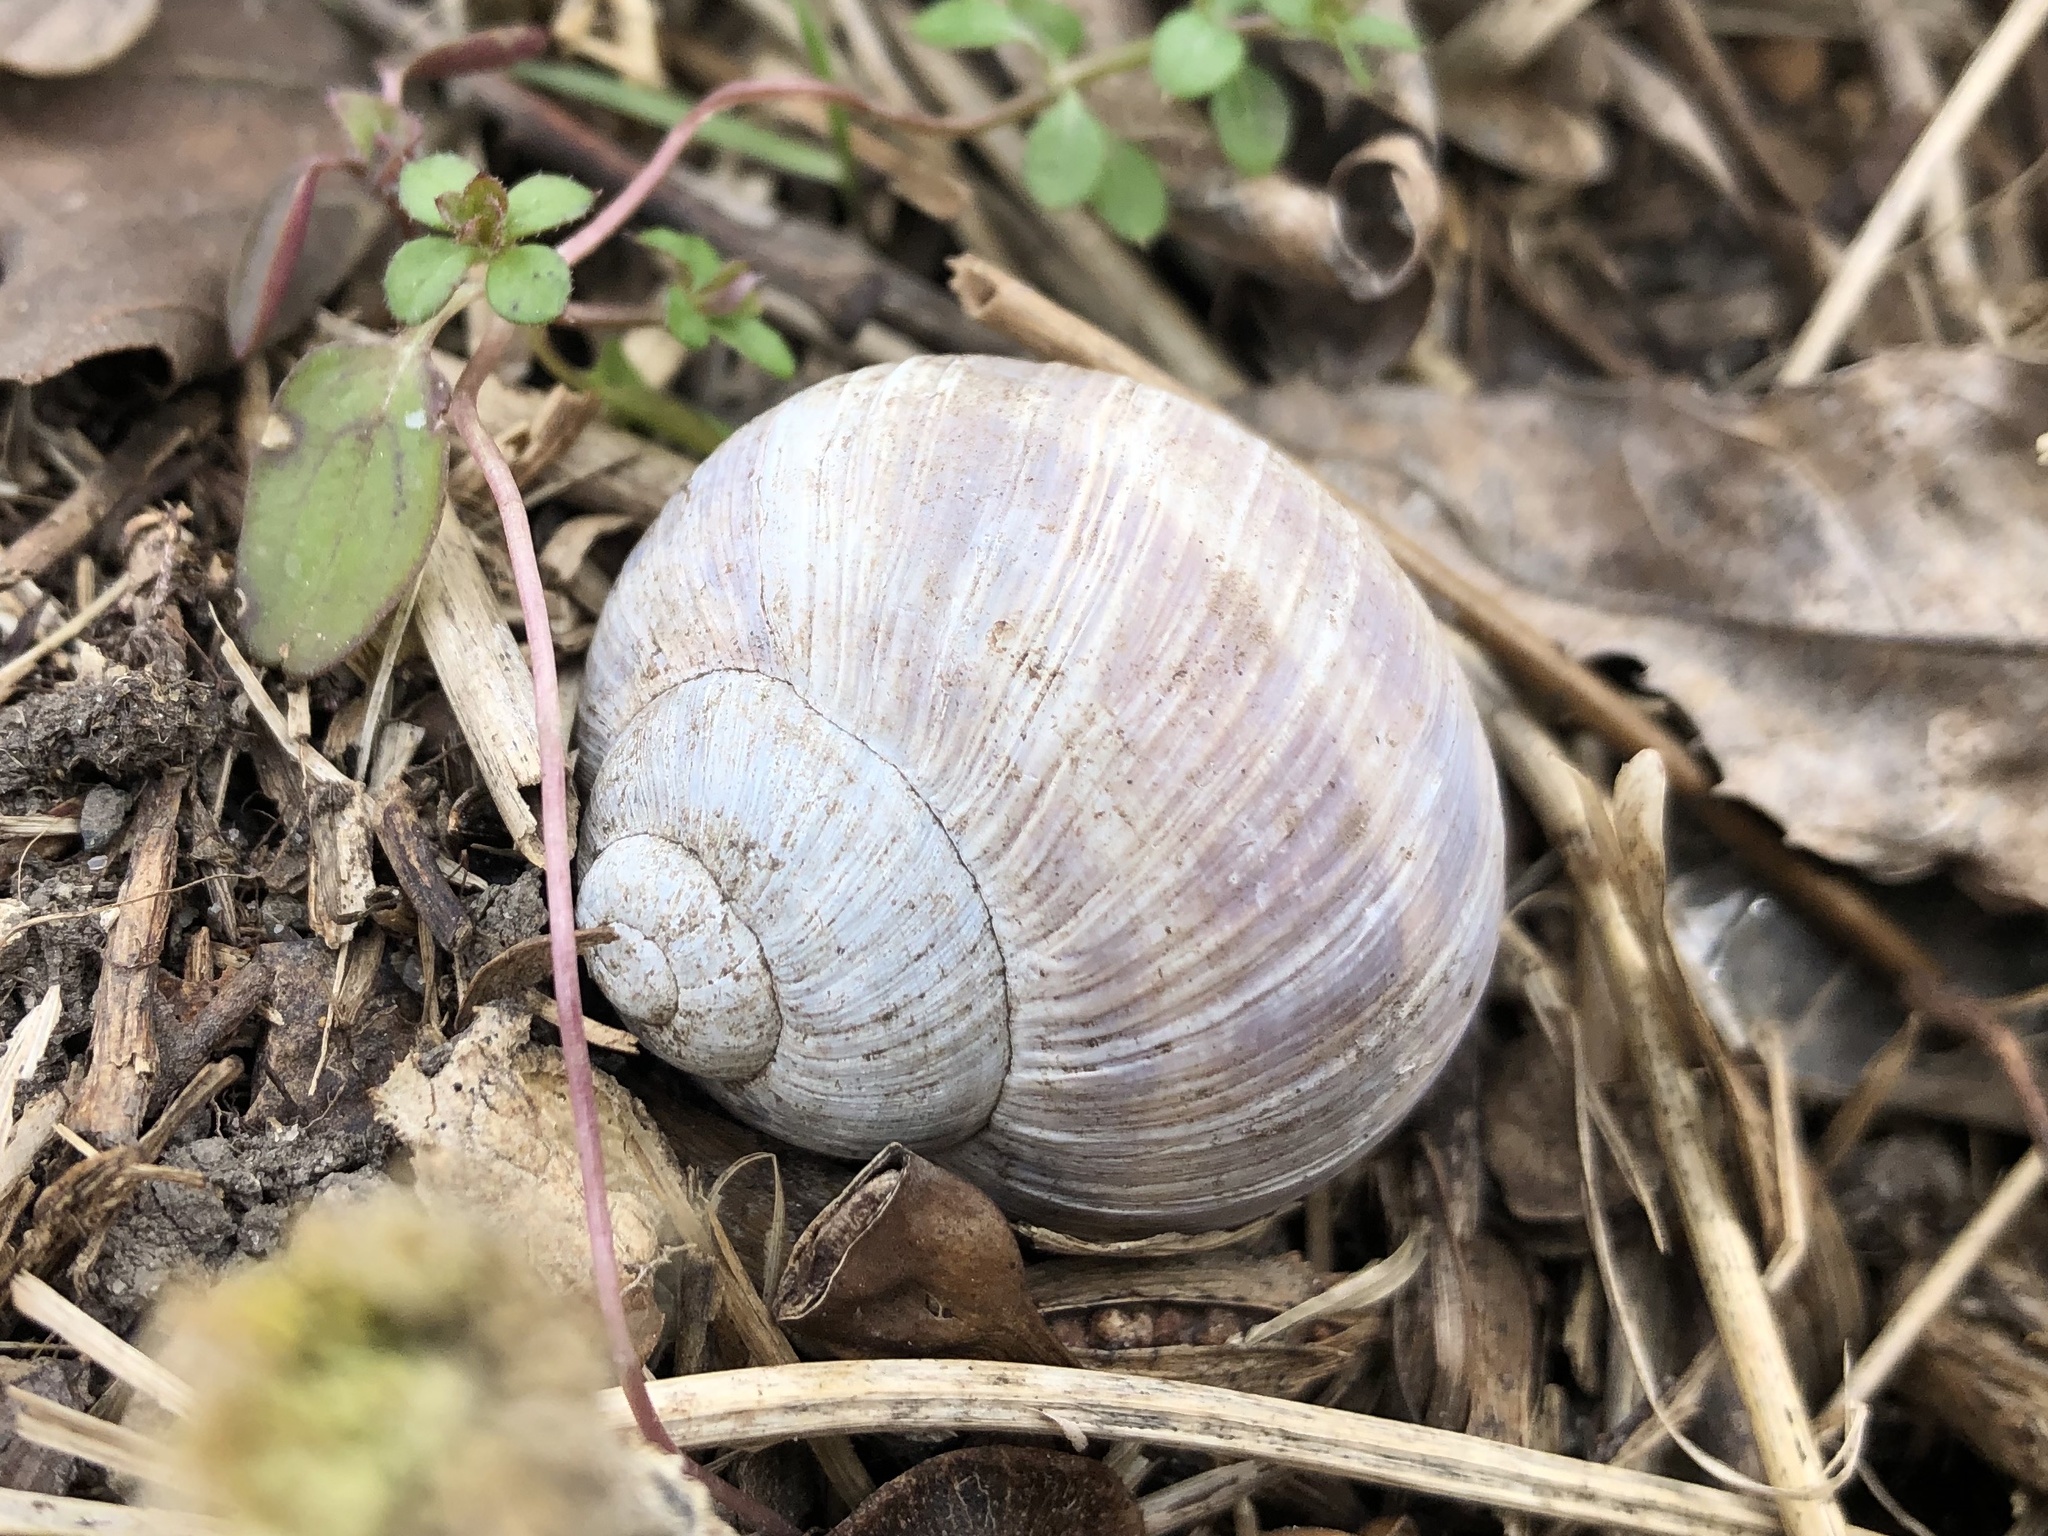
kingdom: Animalia
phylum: Mollusca
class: Gastropoda
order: Stylommatophora
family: Helicidae
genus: Helix
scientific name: Helix pomatia
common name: Roman snail
